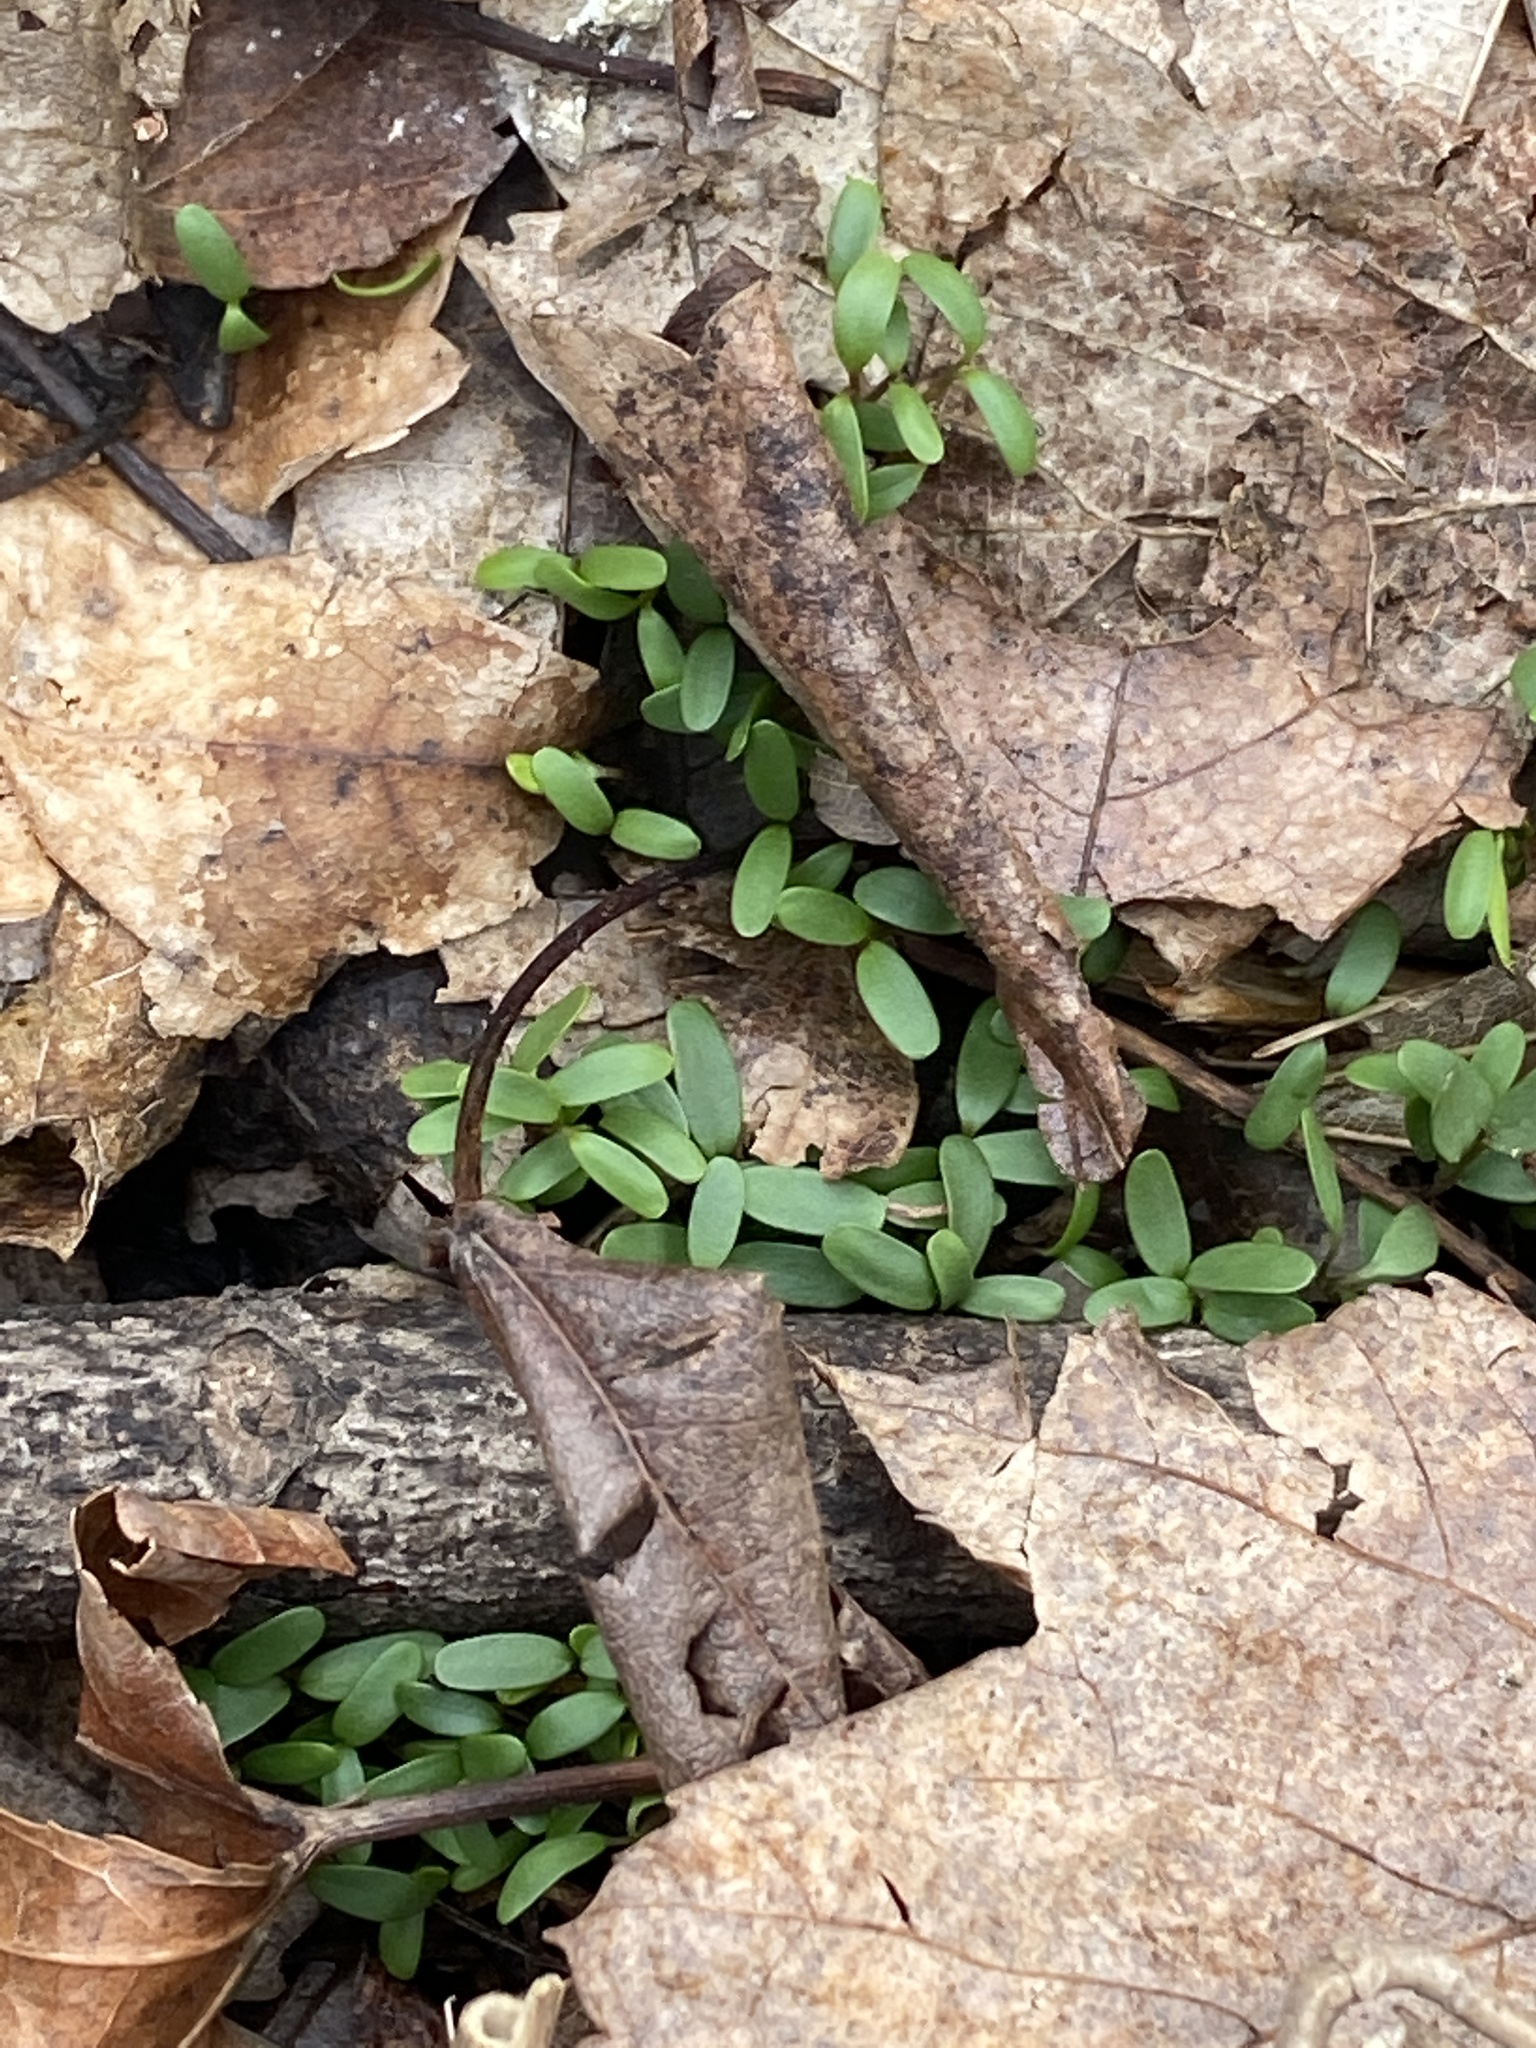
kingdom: Plantae
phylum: Tracheophyta
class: Magnoliopsida
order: Brassicales
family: Brassicaceae
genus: Alliaria
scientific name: Alliaria petiolata
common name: Garlic mustard
